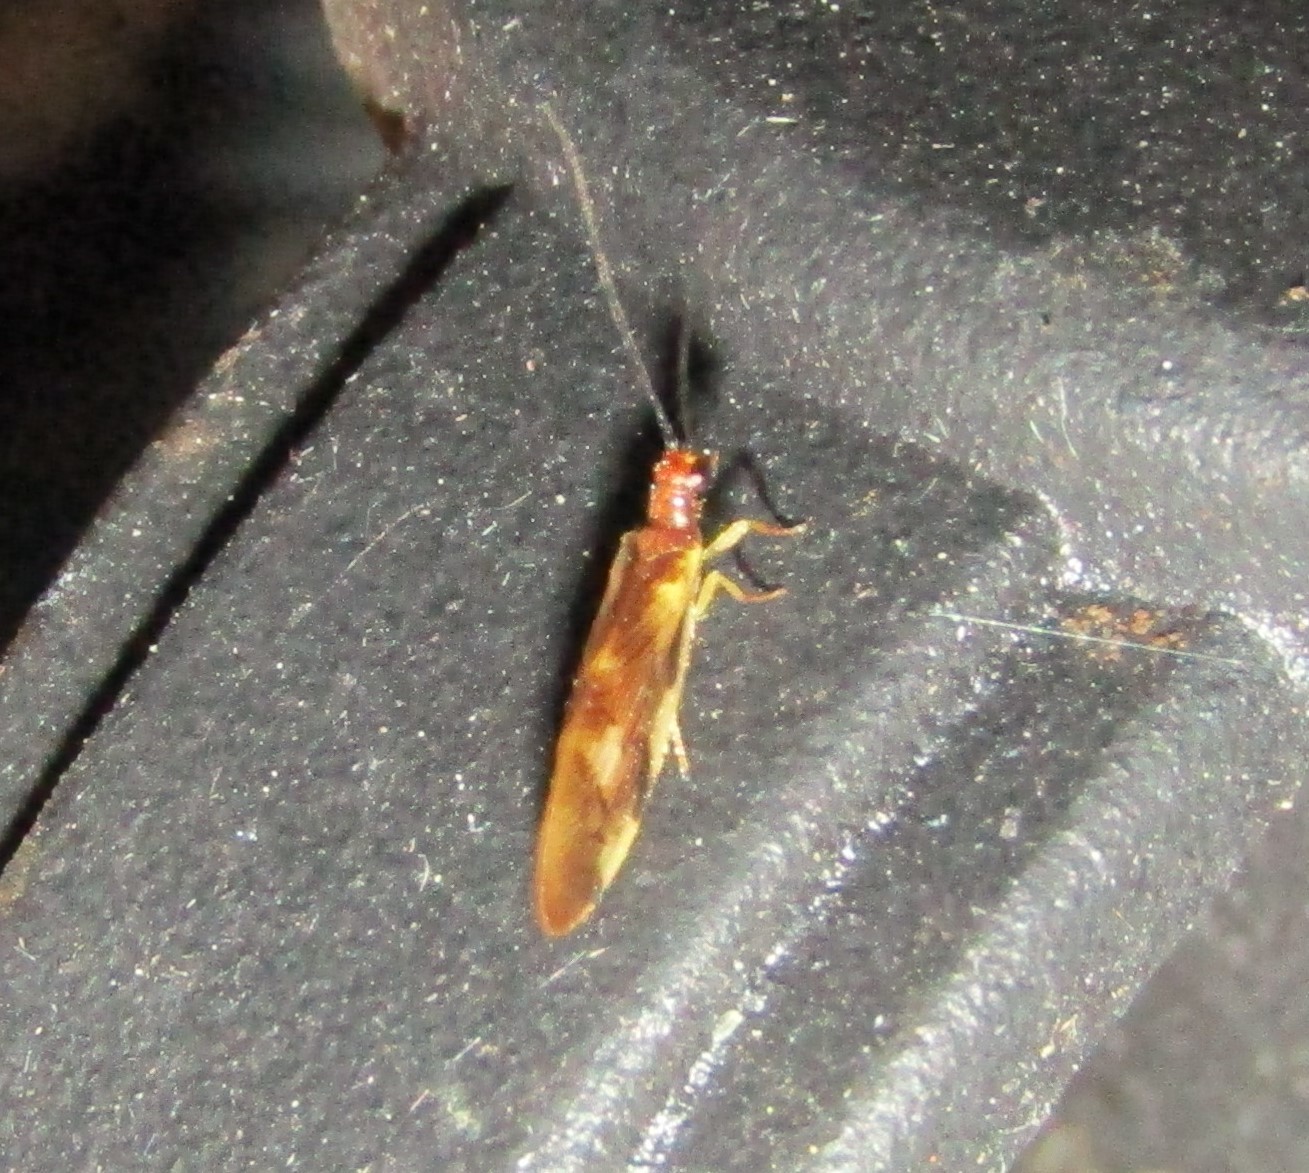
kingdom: Animalia
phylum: Arthropoda
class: Insecta
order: Neuroptera
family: Sisyridae
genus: Climacia
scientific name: Climacia areolaris
